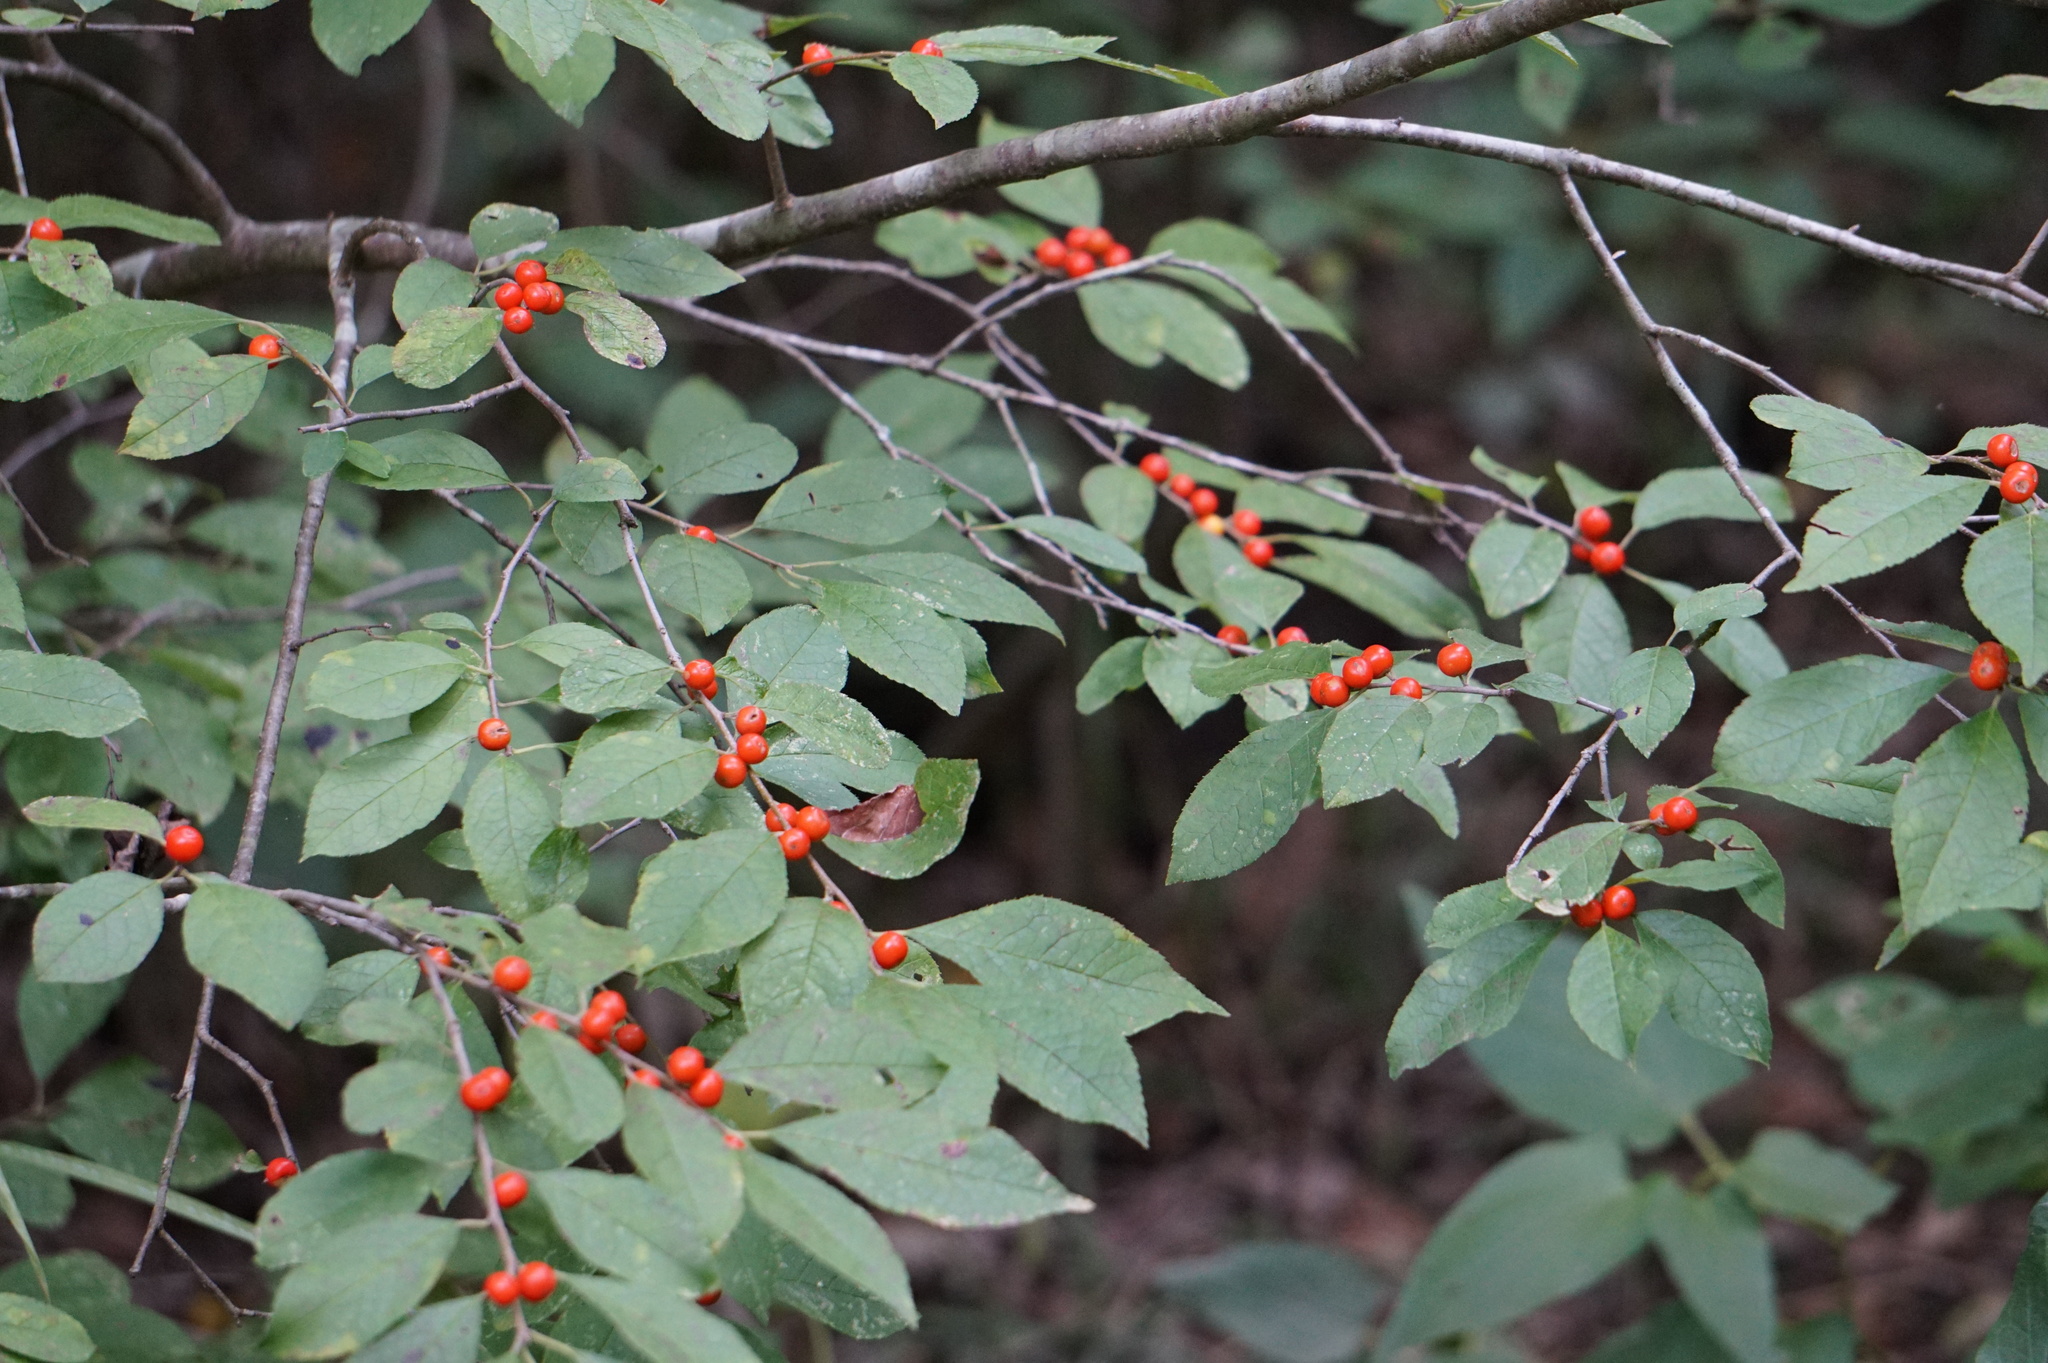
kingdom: Plantae
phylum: Tracheophyta
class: Magnoliopsida
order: Aquifoliales
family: Aquifoliaceae
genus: Ilex
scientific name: Ilex verticillata
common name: Virginia winterberry
